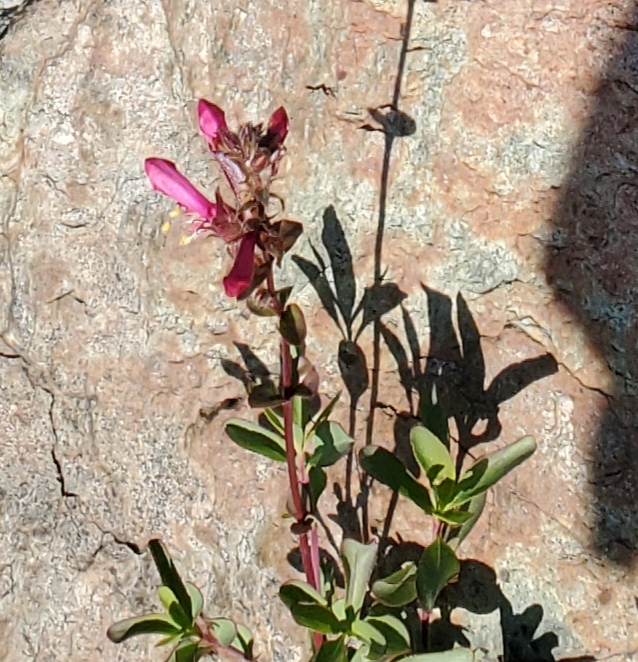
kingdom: Plantae
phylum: Tracheophyta
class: Magnoliopsida
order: Lamiales
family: Plantaginaceae
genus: Penstemon
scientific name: Penstemon newberryi
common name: Mountain-pride
